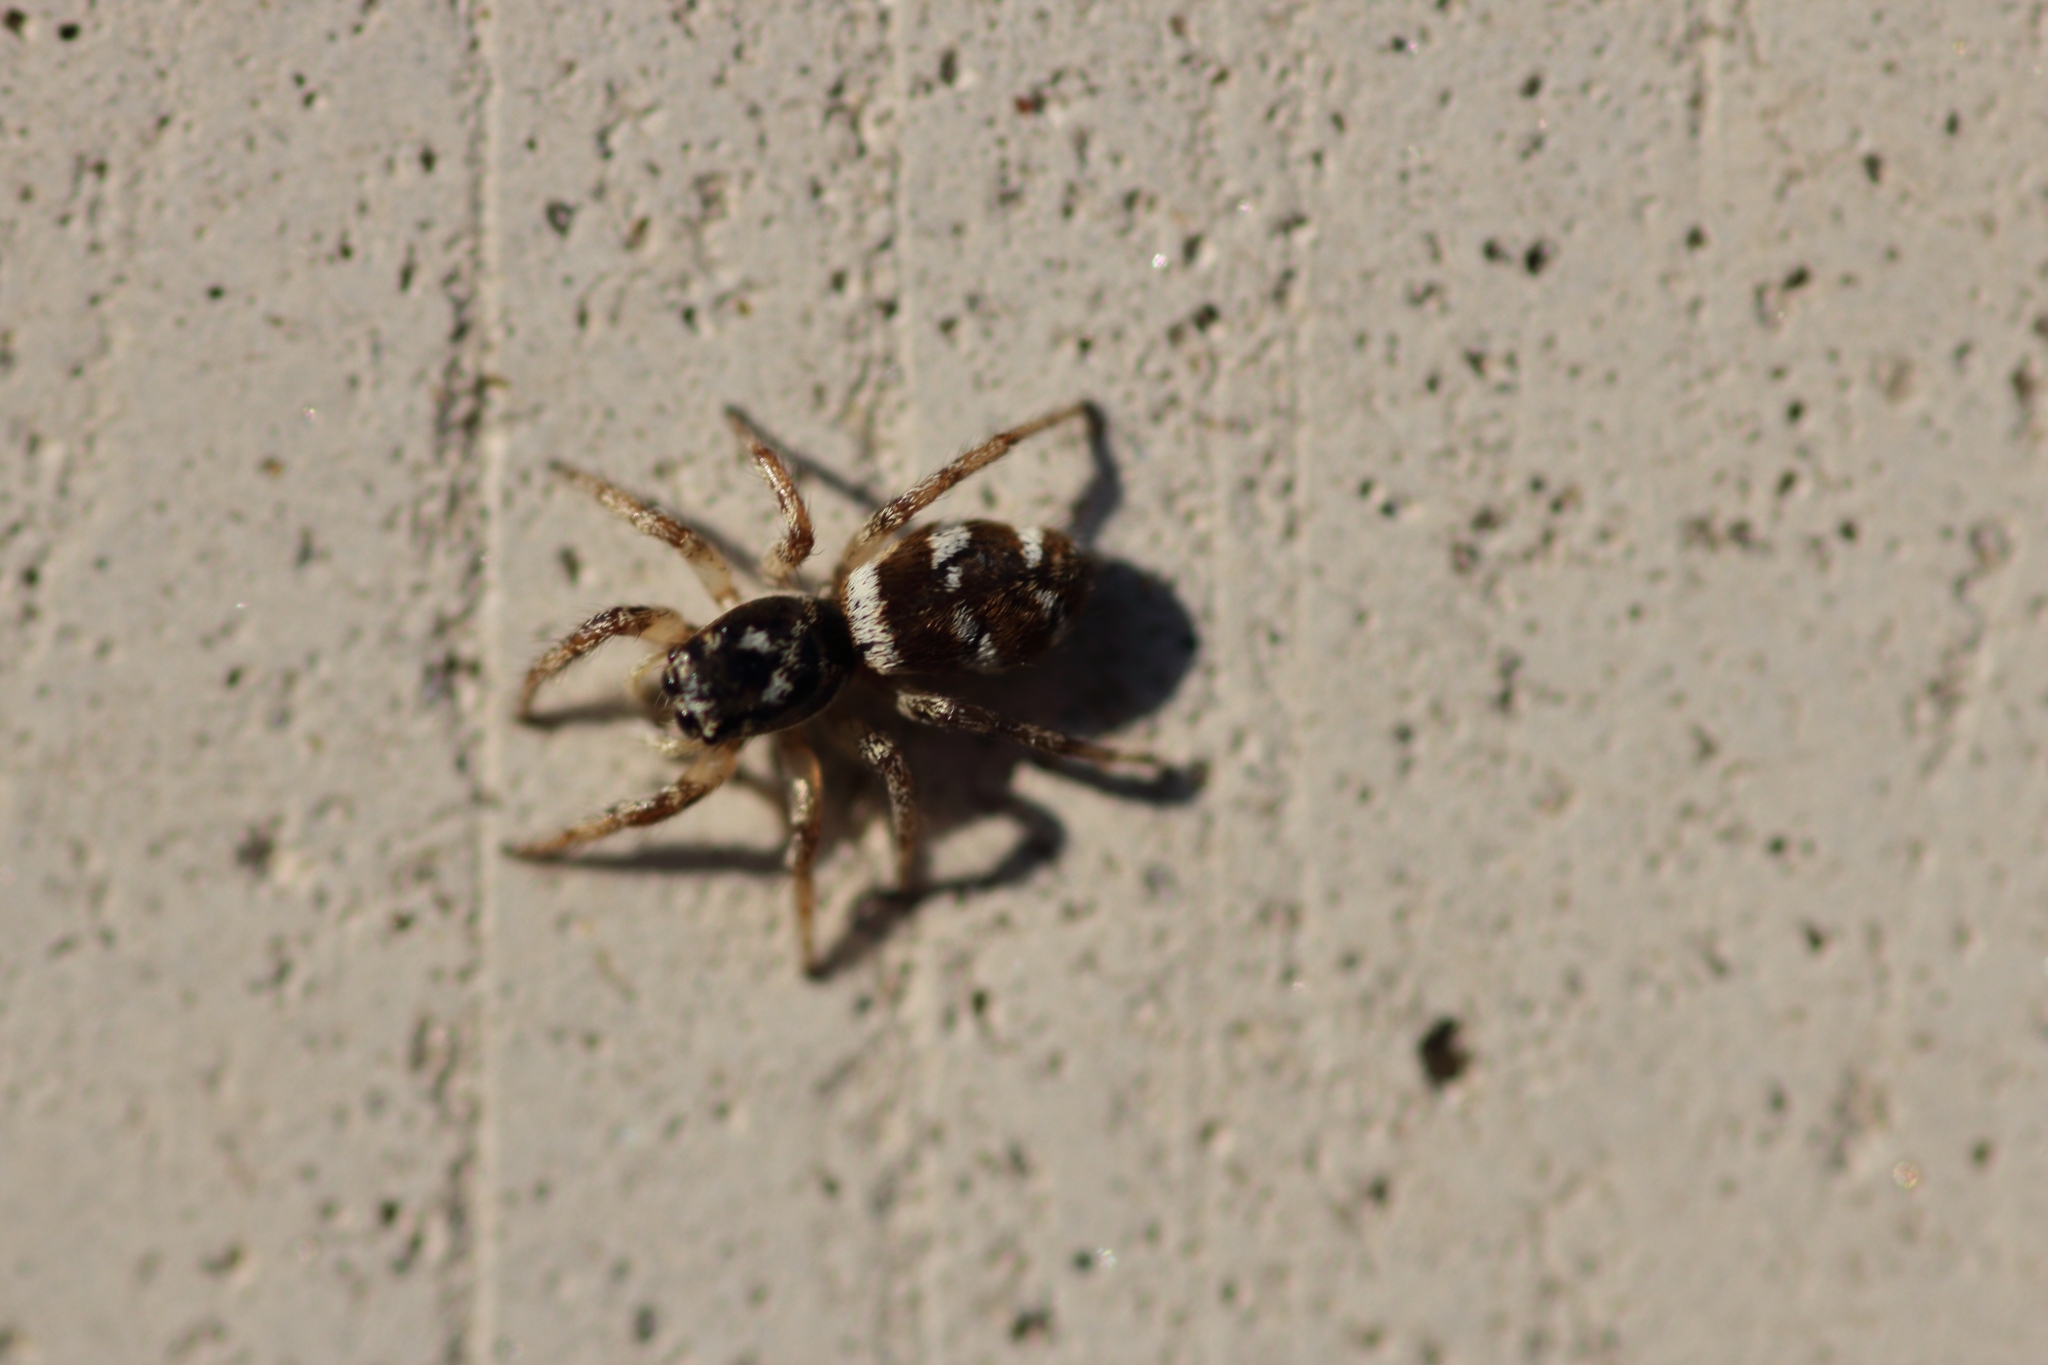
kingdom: Animalia
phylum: Arthropoda
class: Arachnida
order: Araneae
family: Salticidae
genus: Salticus
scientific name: Salticus scenicus
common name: Zebra jumper
